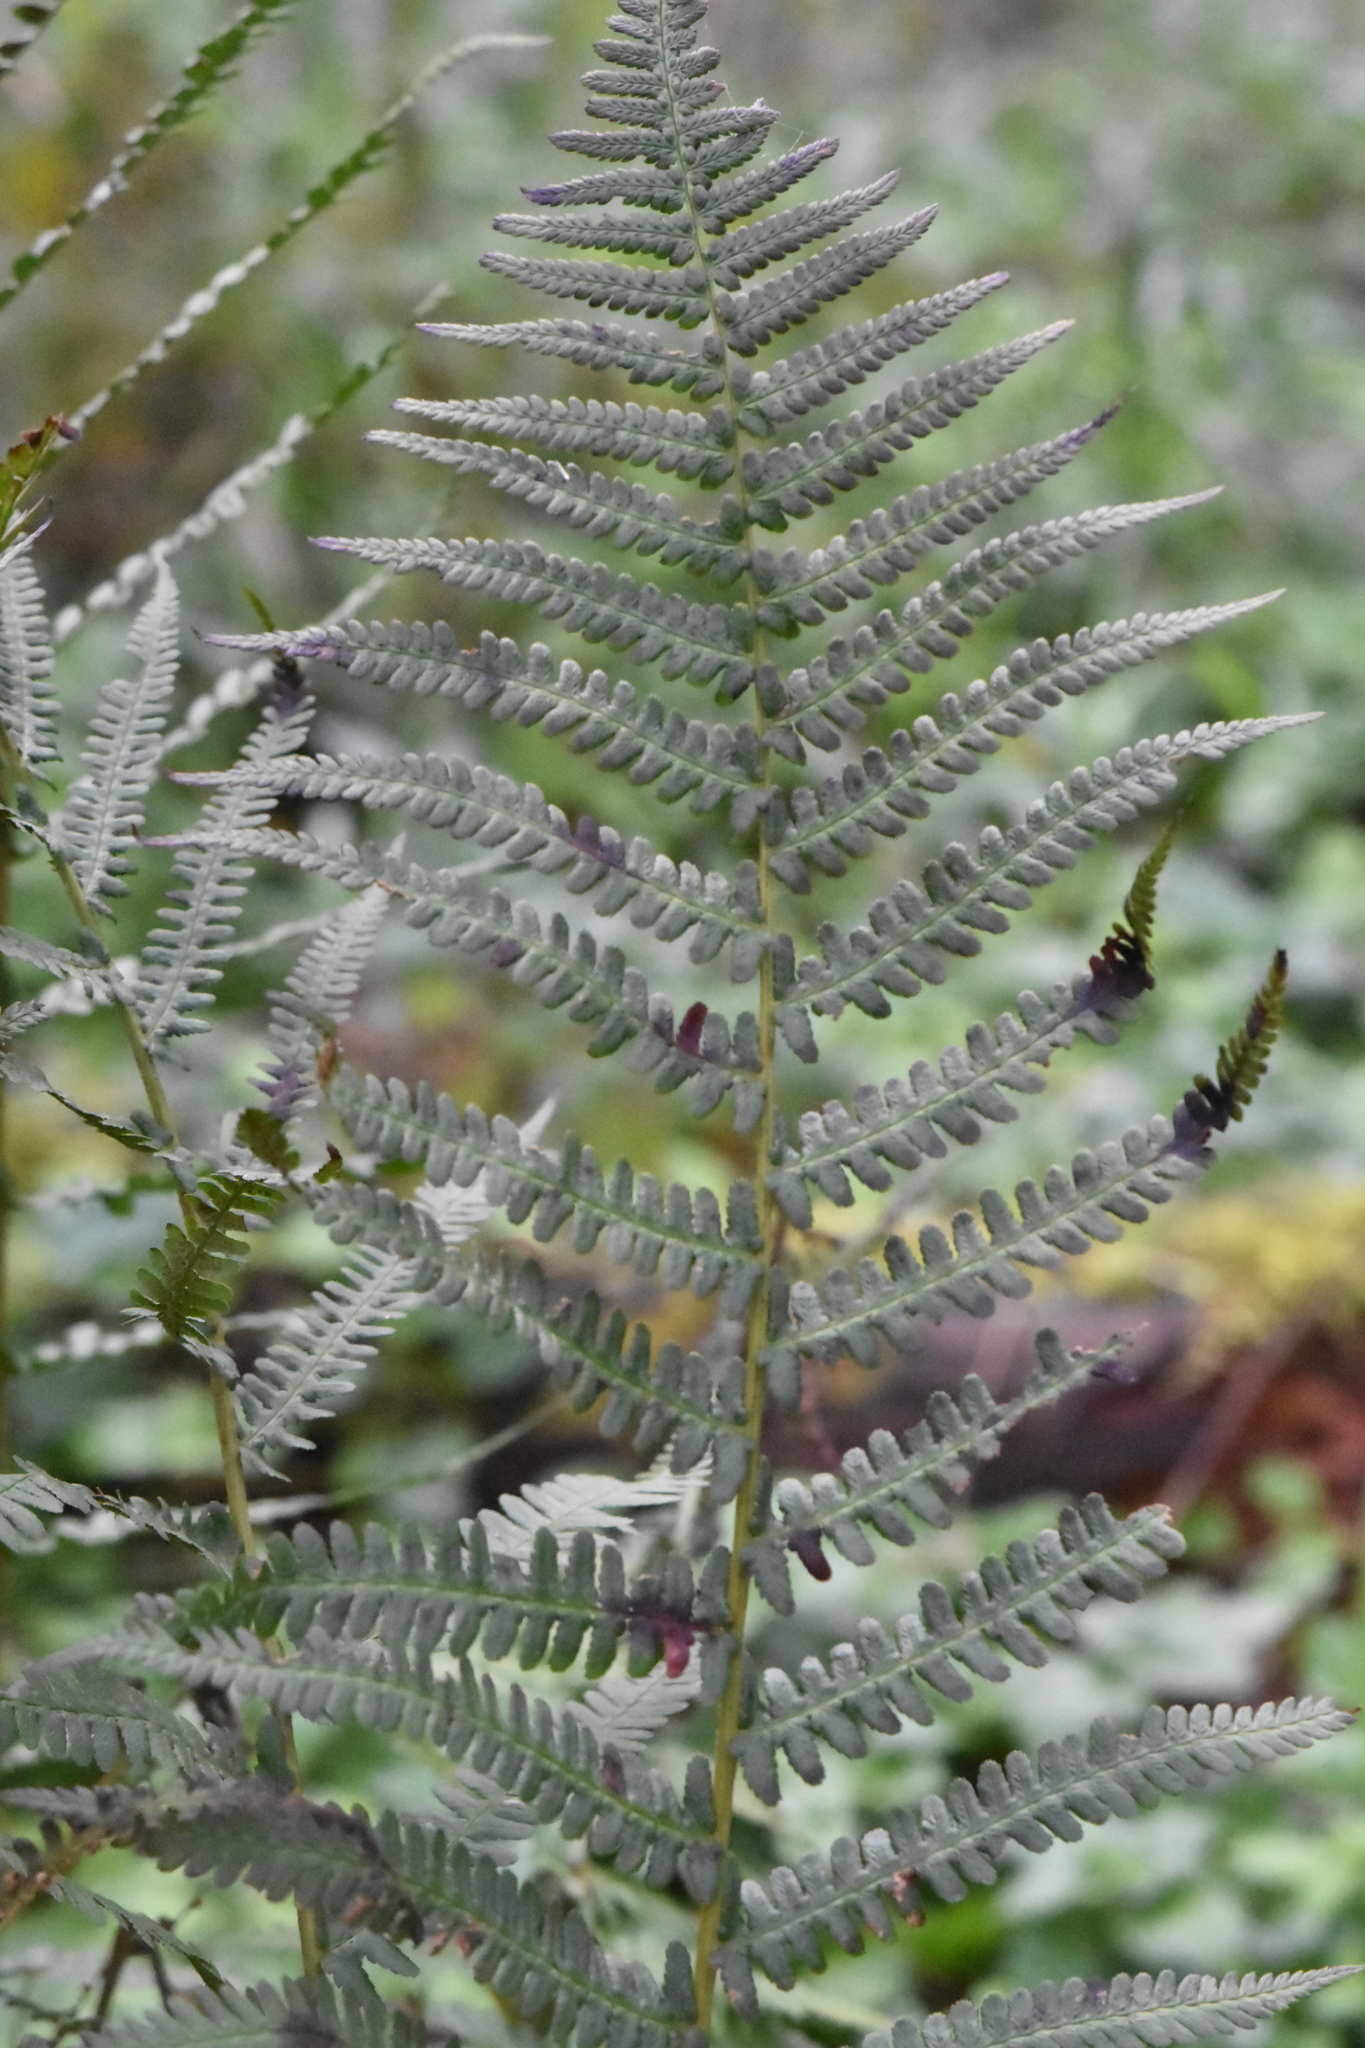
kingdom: Plantae
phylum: Tracheophyta
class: Polypodiopsida
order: Polypodiales
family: Dryopteridaceae
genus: Dryopteris
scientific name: Dryopteris filix-mas
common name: Male fern
